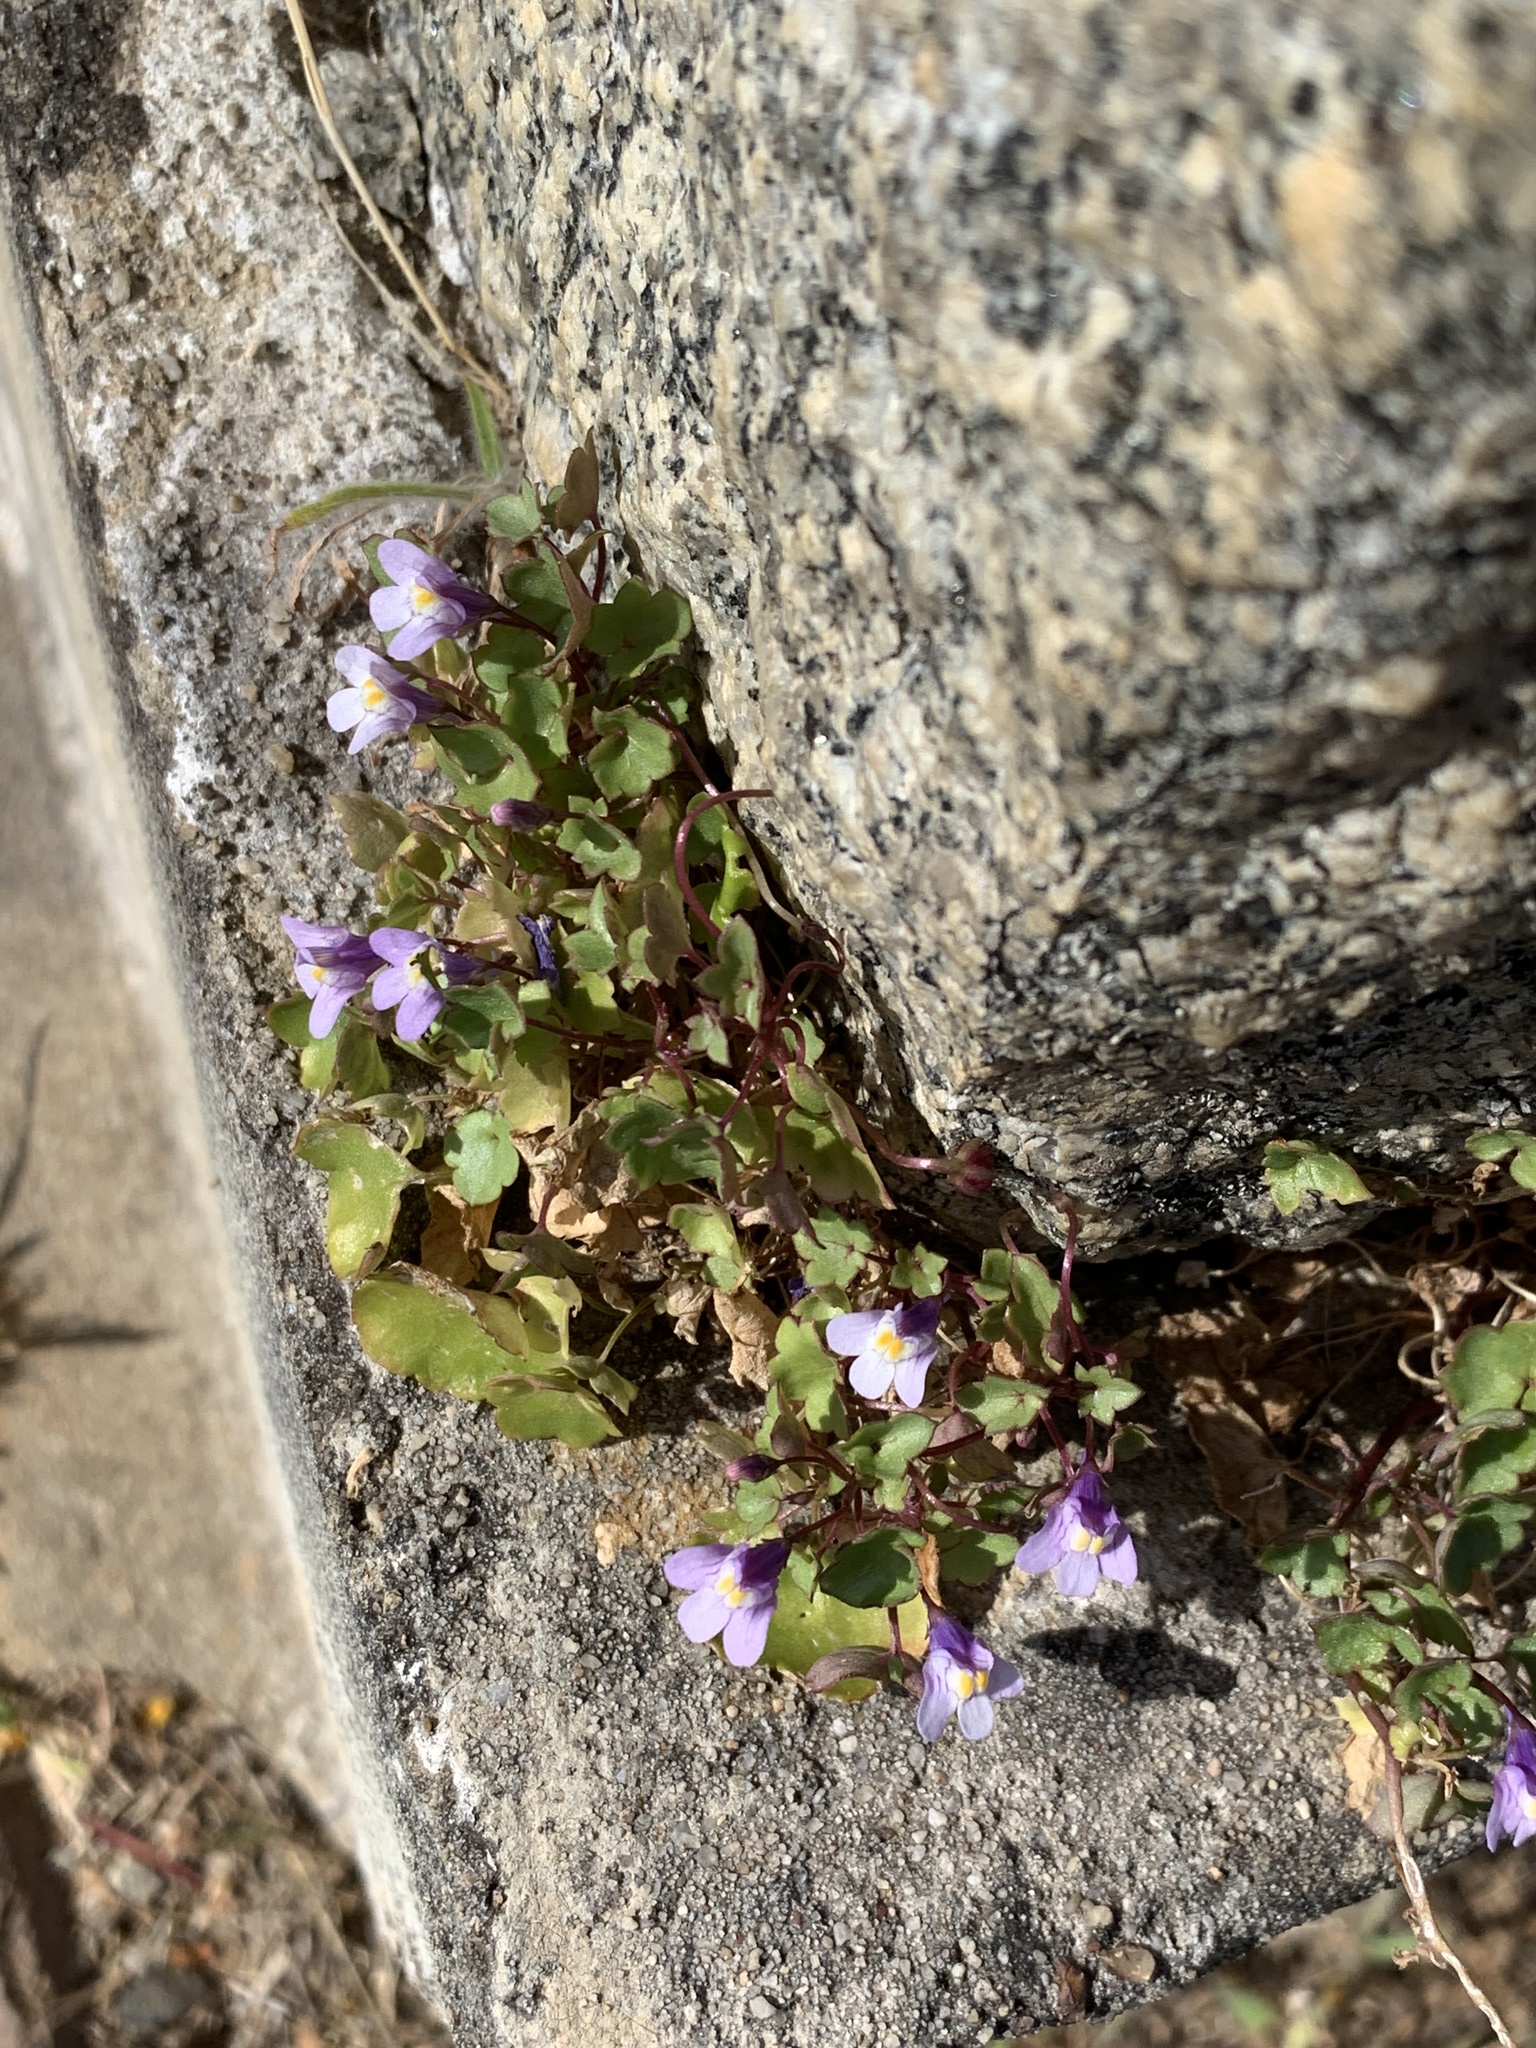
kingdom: Plantae
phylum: Tracheophyta
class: Magnoliopsida
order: Lamiales
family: Plantaginaceae
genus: Cymbalaria
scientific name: Cymbalaria muralis
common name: Ivy-leaved toadflax
